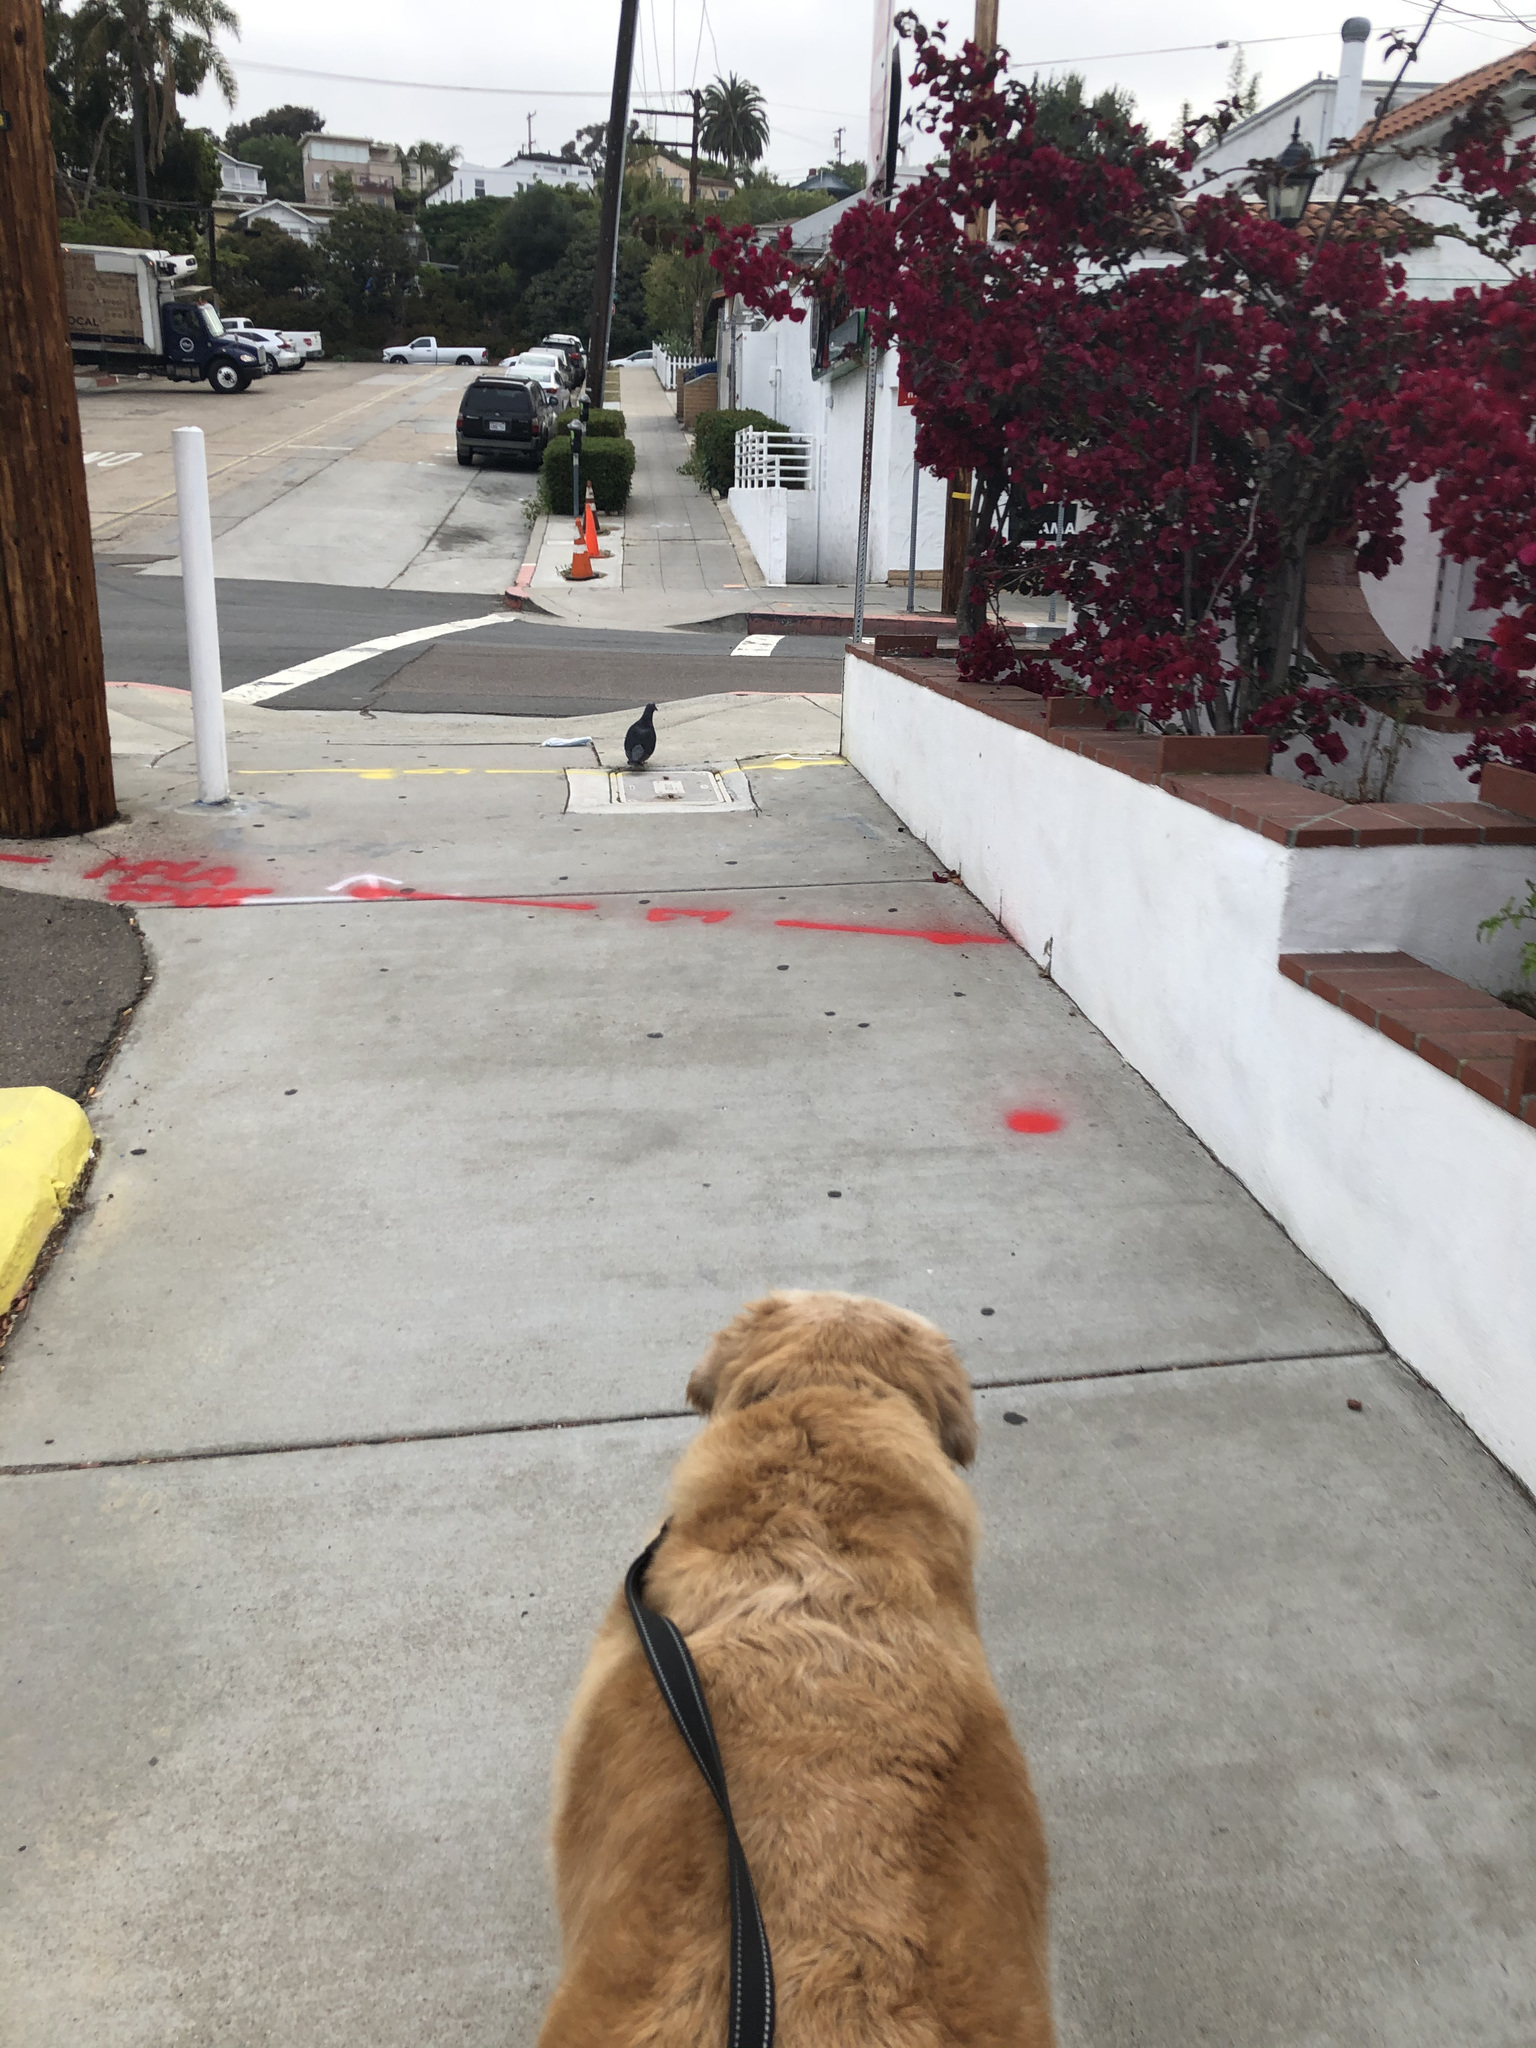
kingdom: Animalia
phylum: Chordata
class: Aves
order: Columbiformes
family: Columbidae
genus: Columba
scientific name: Columba livia
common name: Rock pigeon
